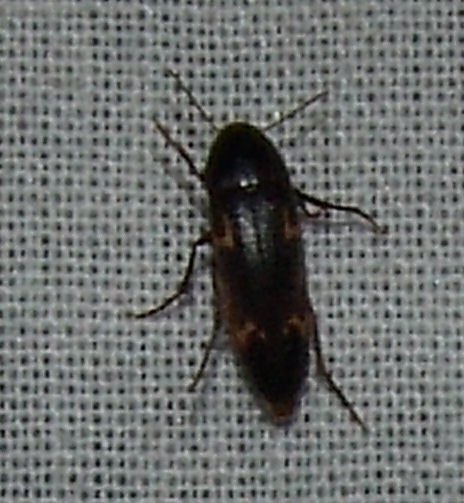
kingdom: Animalia
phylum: Arthropoda
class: Insecta
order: Coleoptera
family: Melandryidae
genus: Dircaea
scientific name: Dircaea liturata
